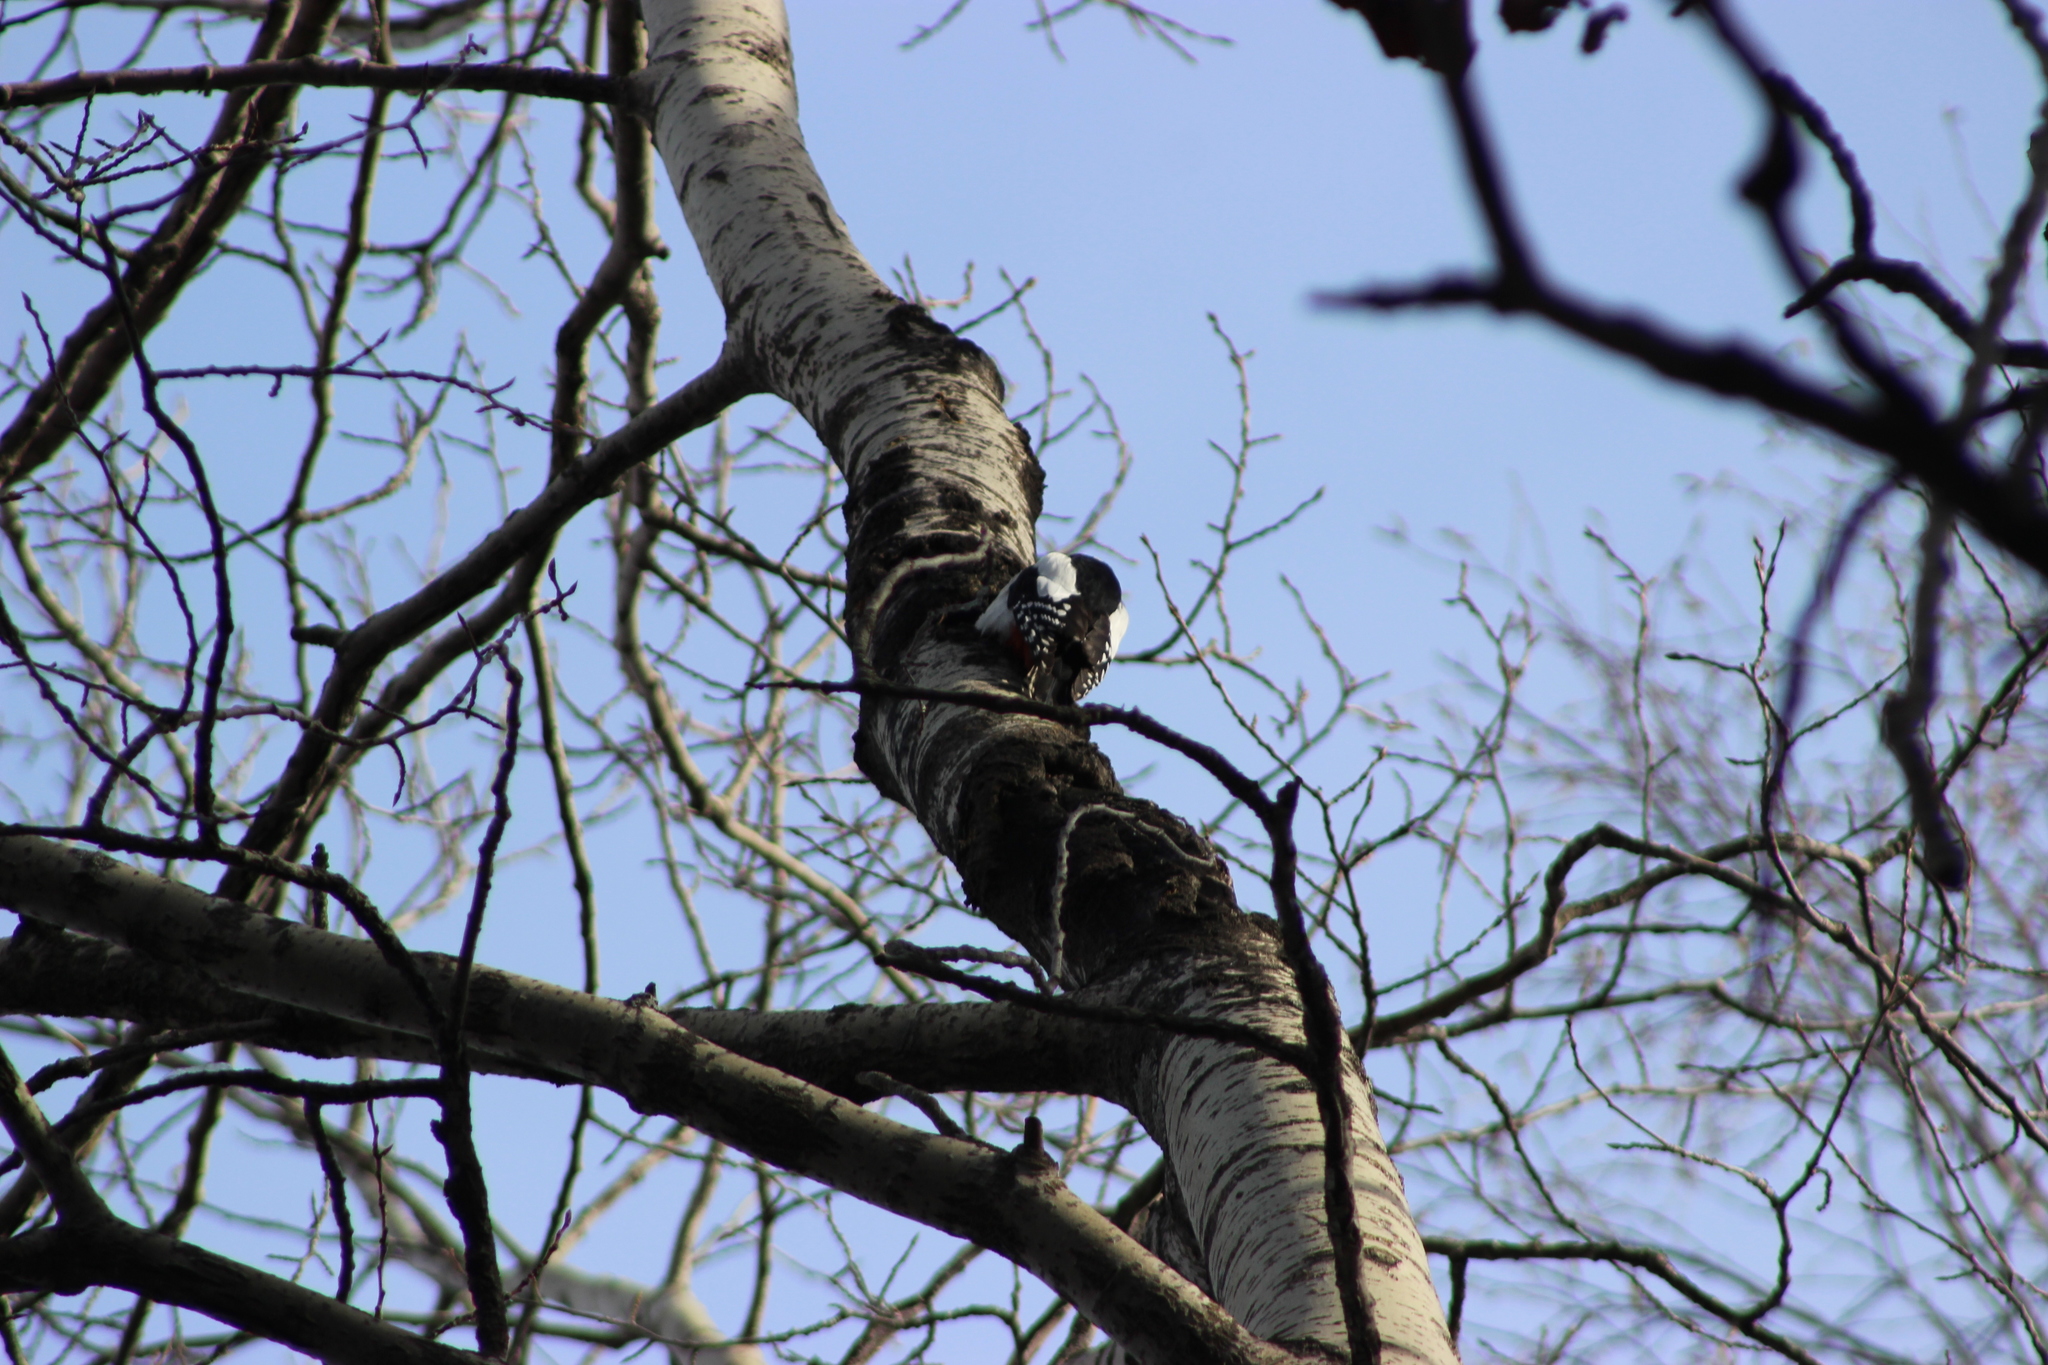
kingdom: Animalia
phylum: Chordata
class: Aves
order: Piciformes
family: Picidae
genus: Dendrocopos
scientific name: Dendrocopos major
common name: Great spotted woodpecker
